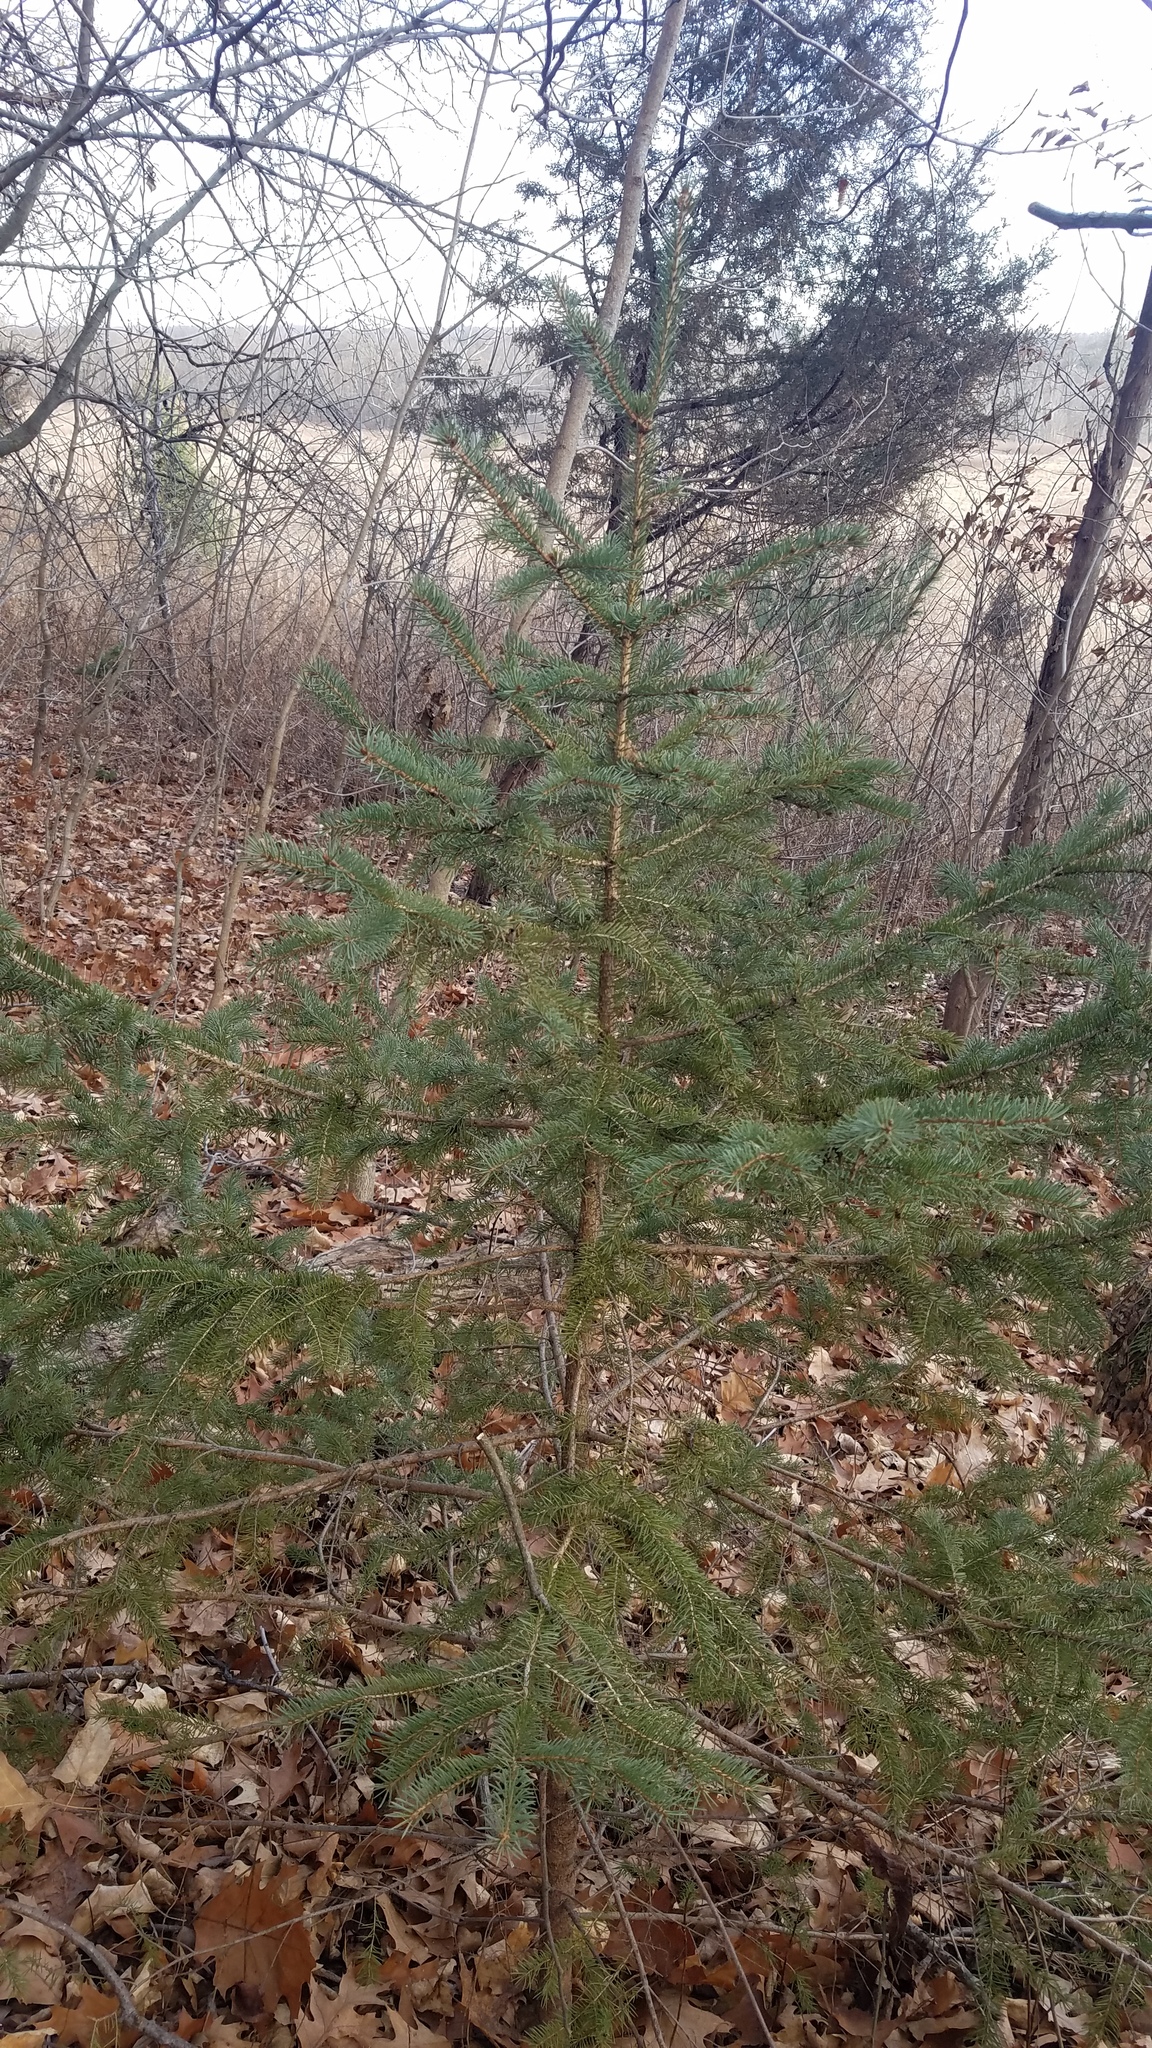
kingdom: Plantae
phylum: Tracheophyta
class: Pinopsida
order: Pinales
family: Pinaceae
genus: Picea
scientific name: Picea glauca
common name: White spruce
